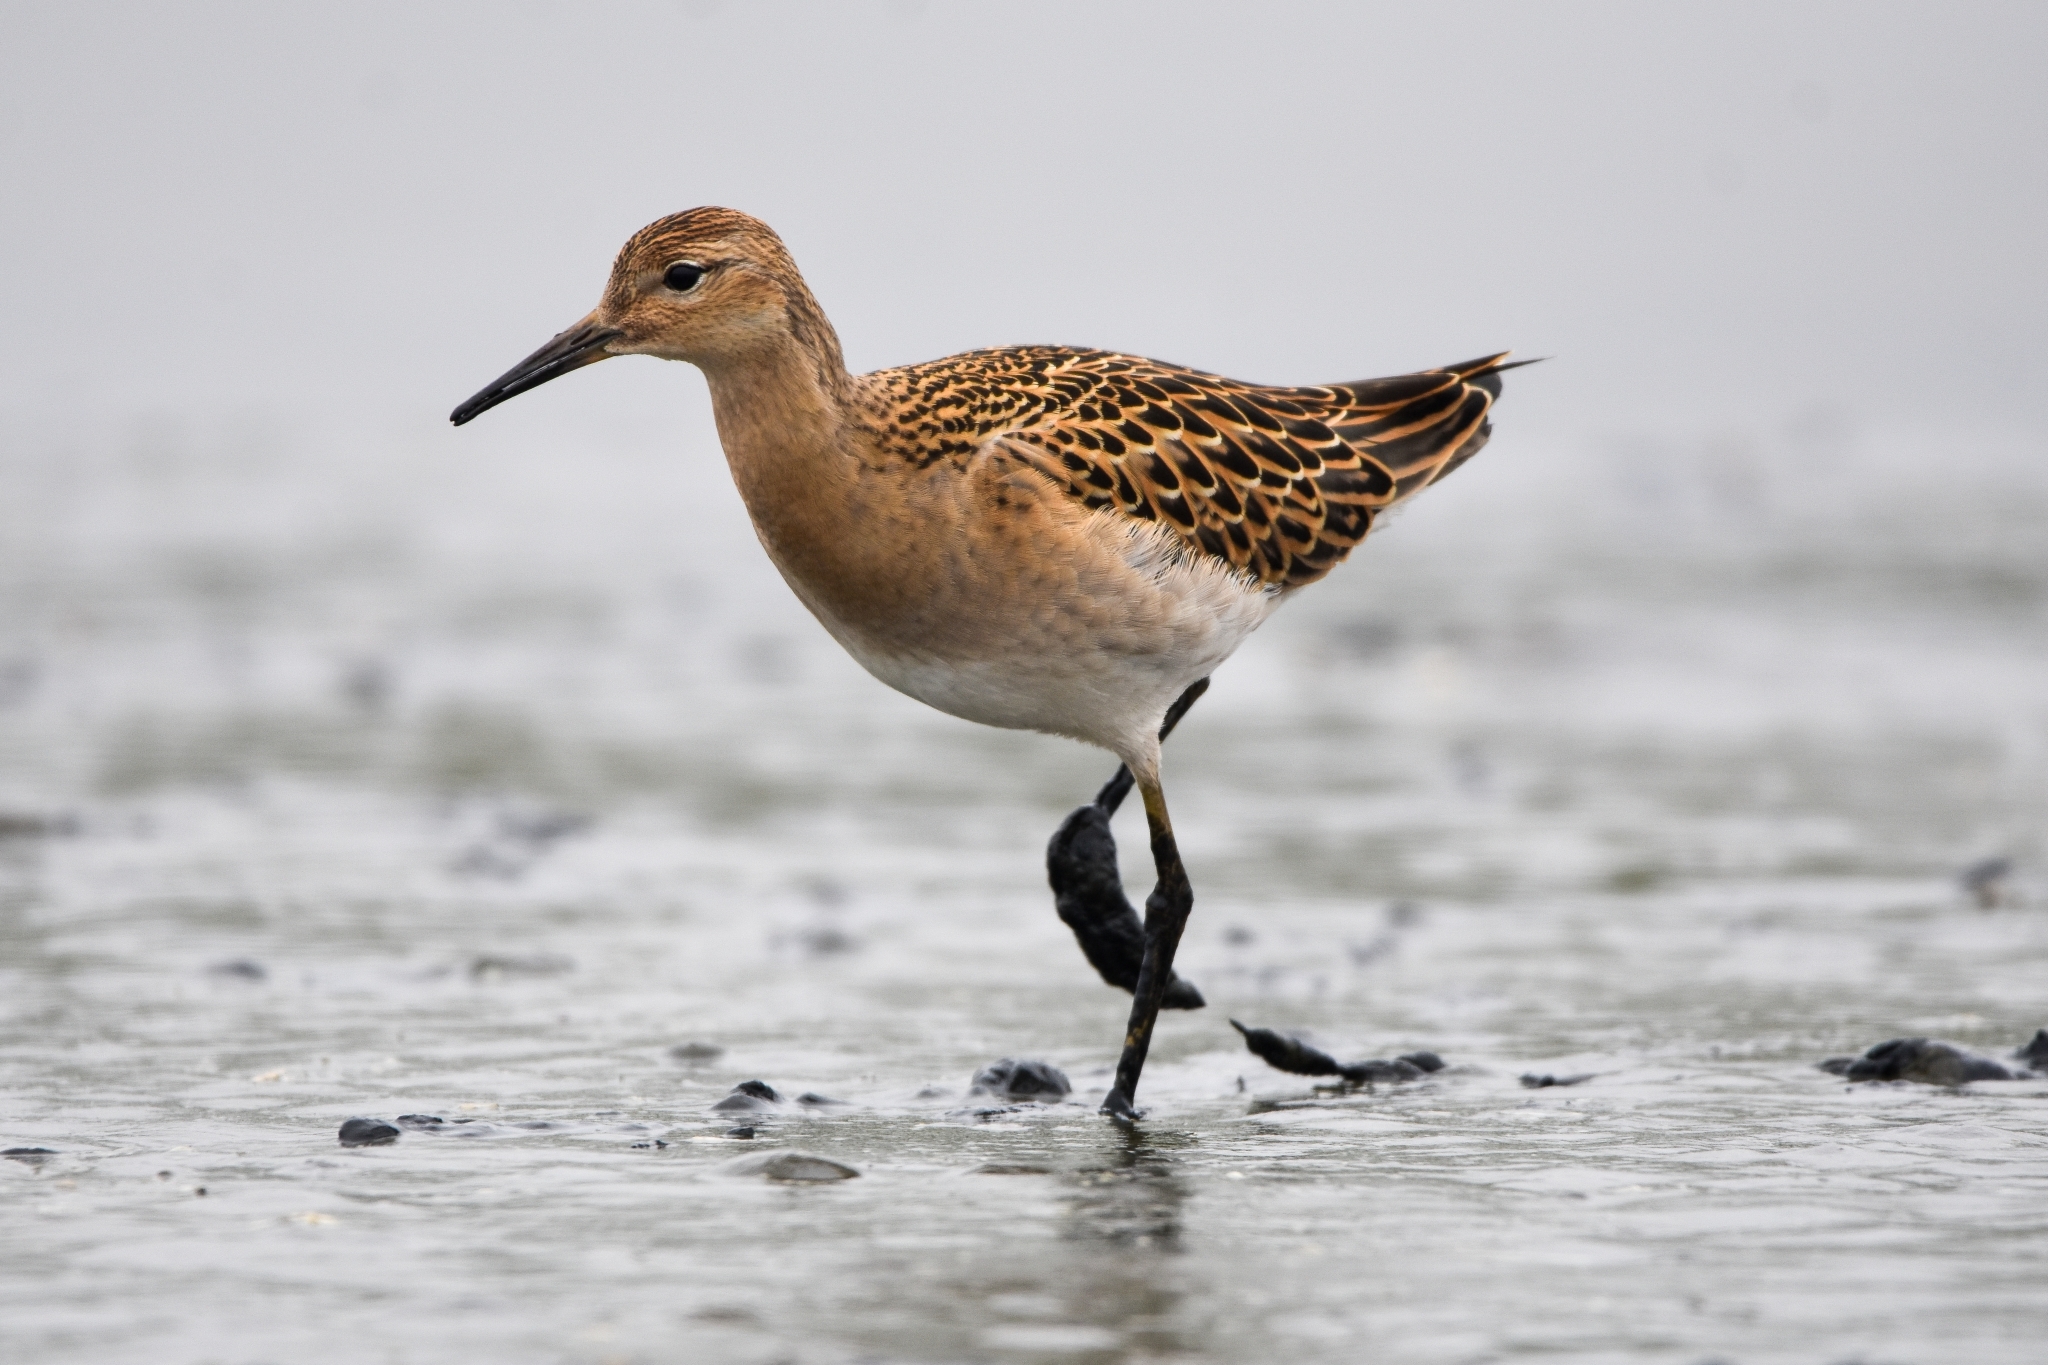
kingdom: Animalia
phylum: Chordata
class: Aves
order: Charadriiformes
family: Scolopacidae
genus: Calidris
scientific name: Calidris pugnax
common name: Ruff
